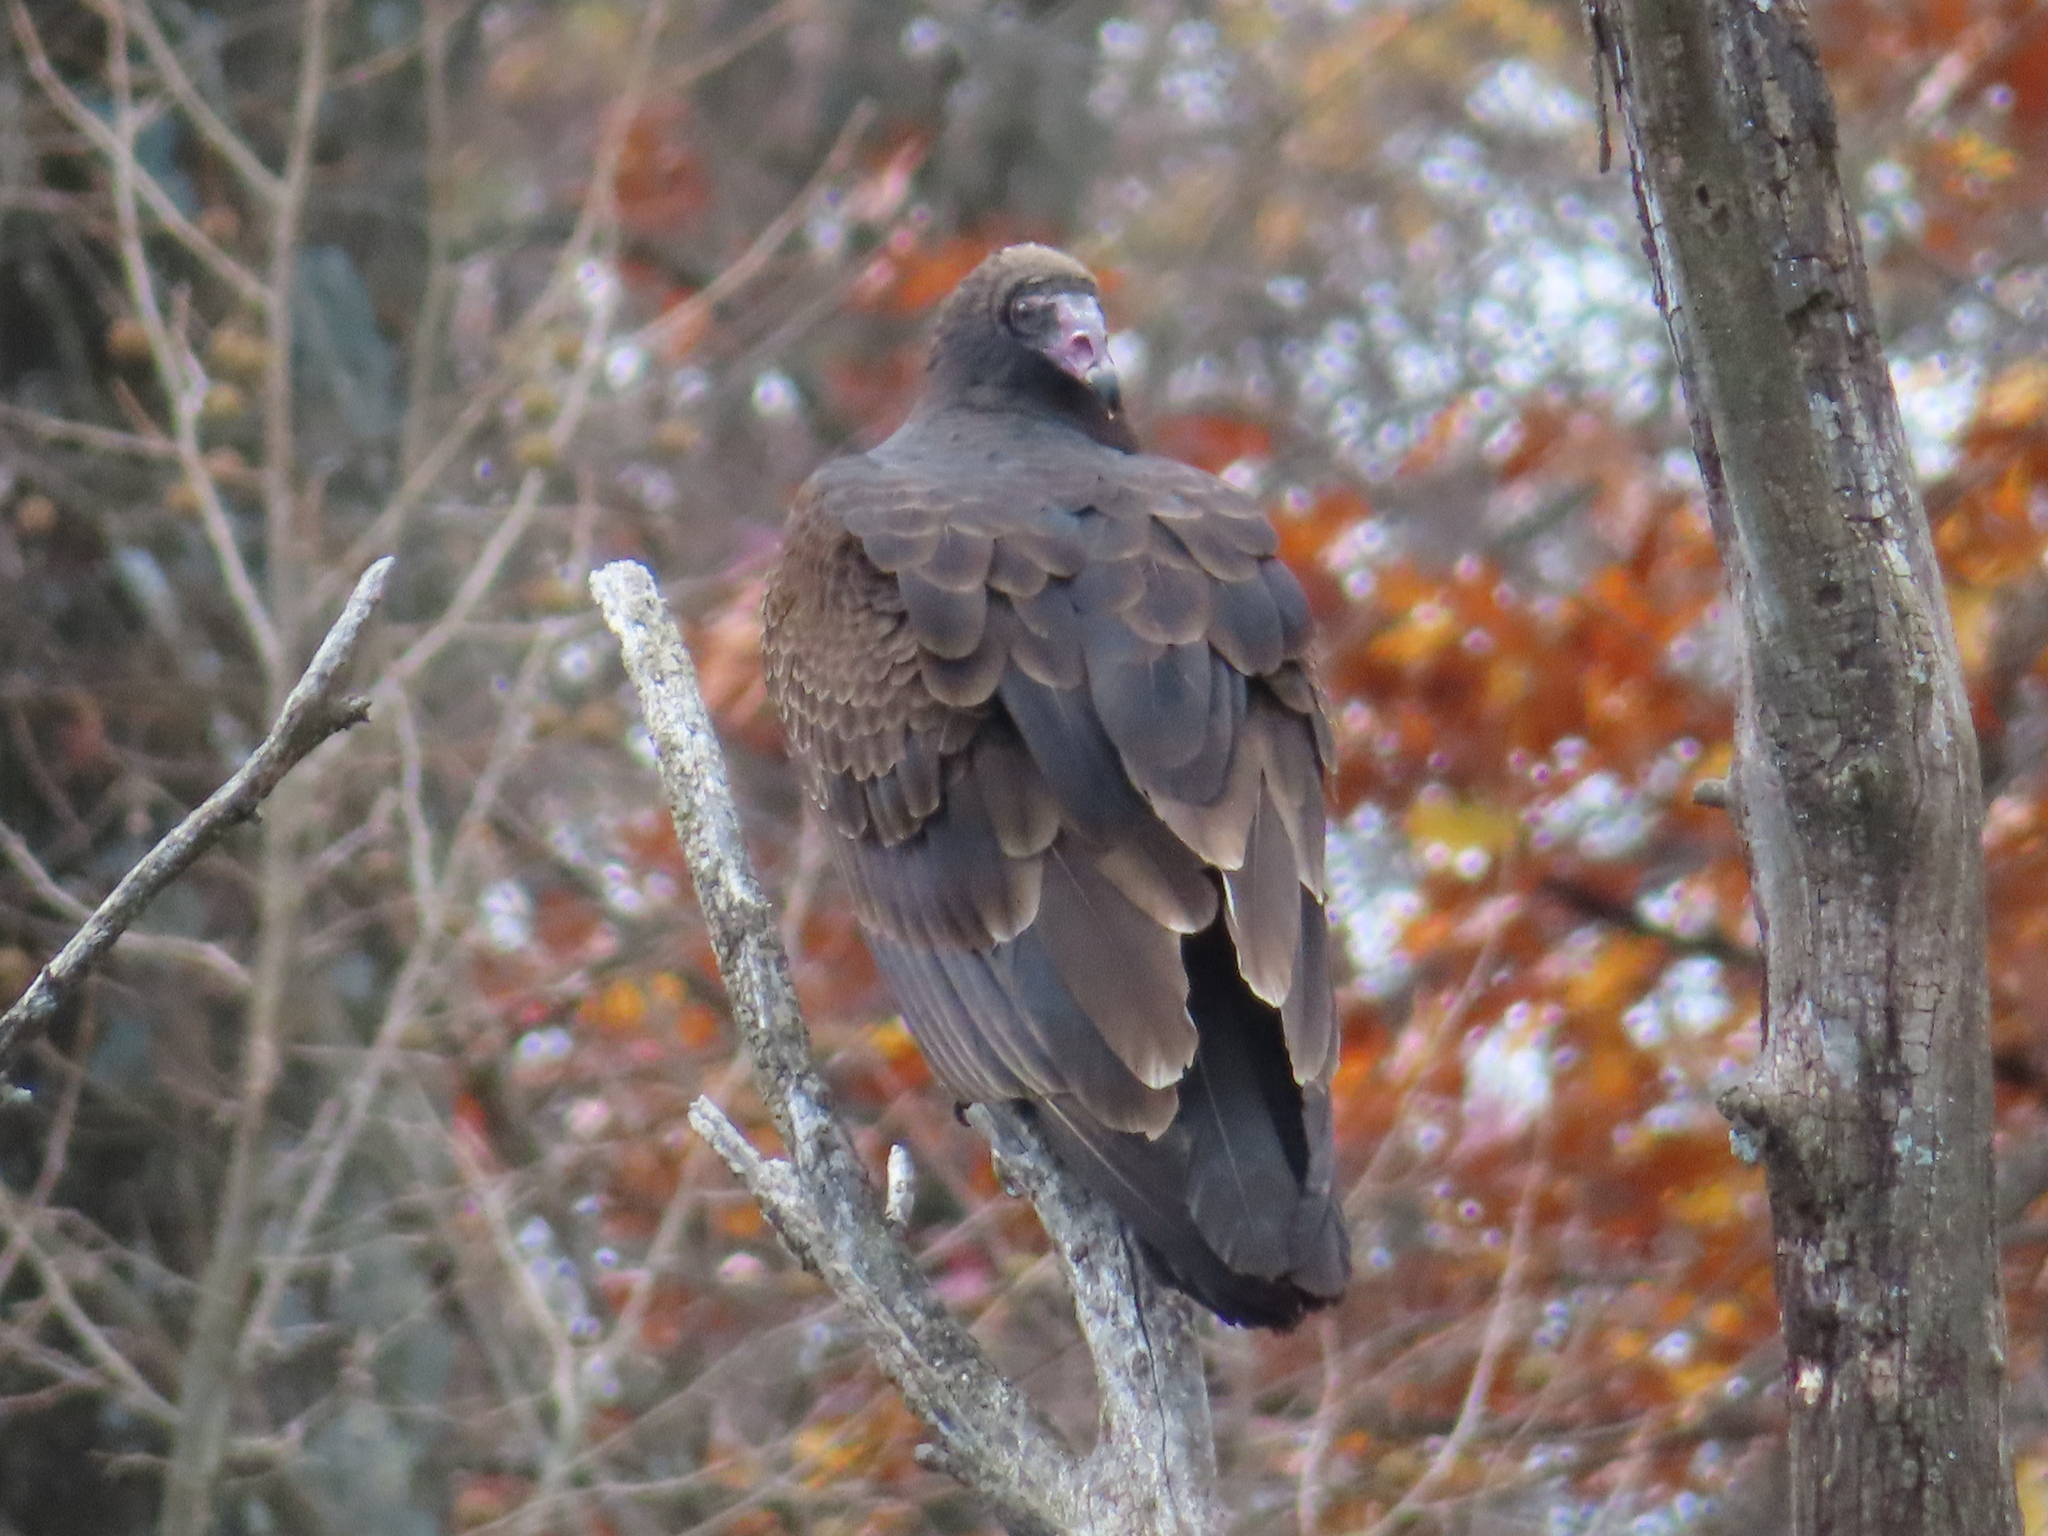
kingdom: Animalia
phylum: Chordata
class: Aves
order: Accipitriformes
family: Cathartidae
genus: Cathartes
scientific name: Cathartes aura
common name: Turkey vulture
